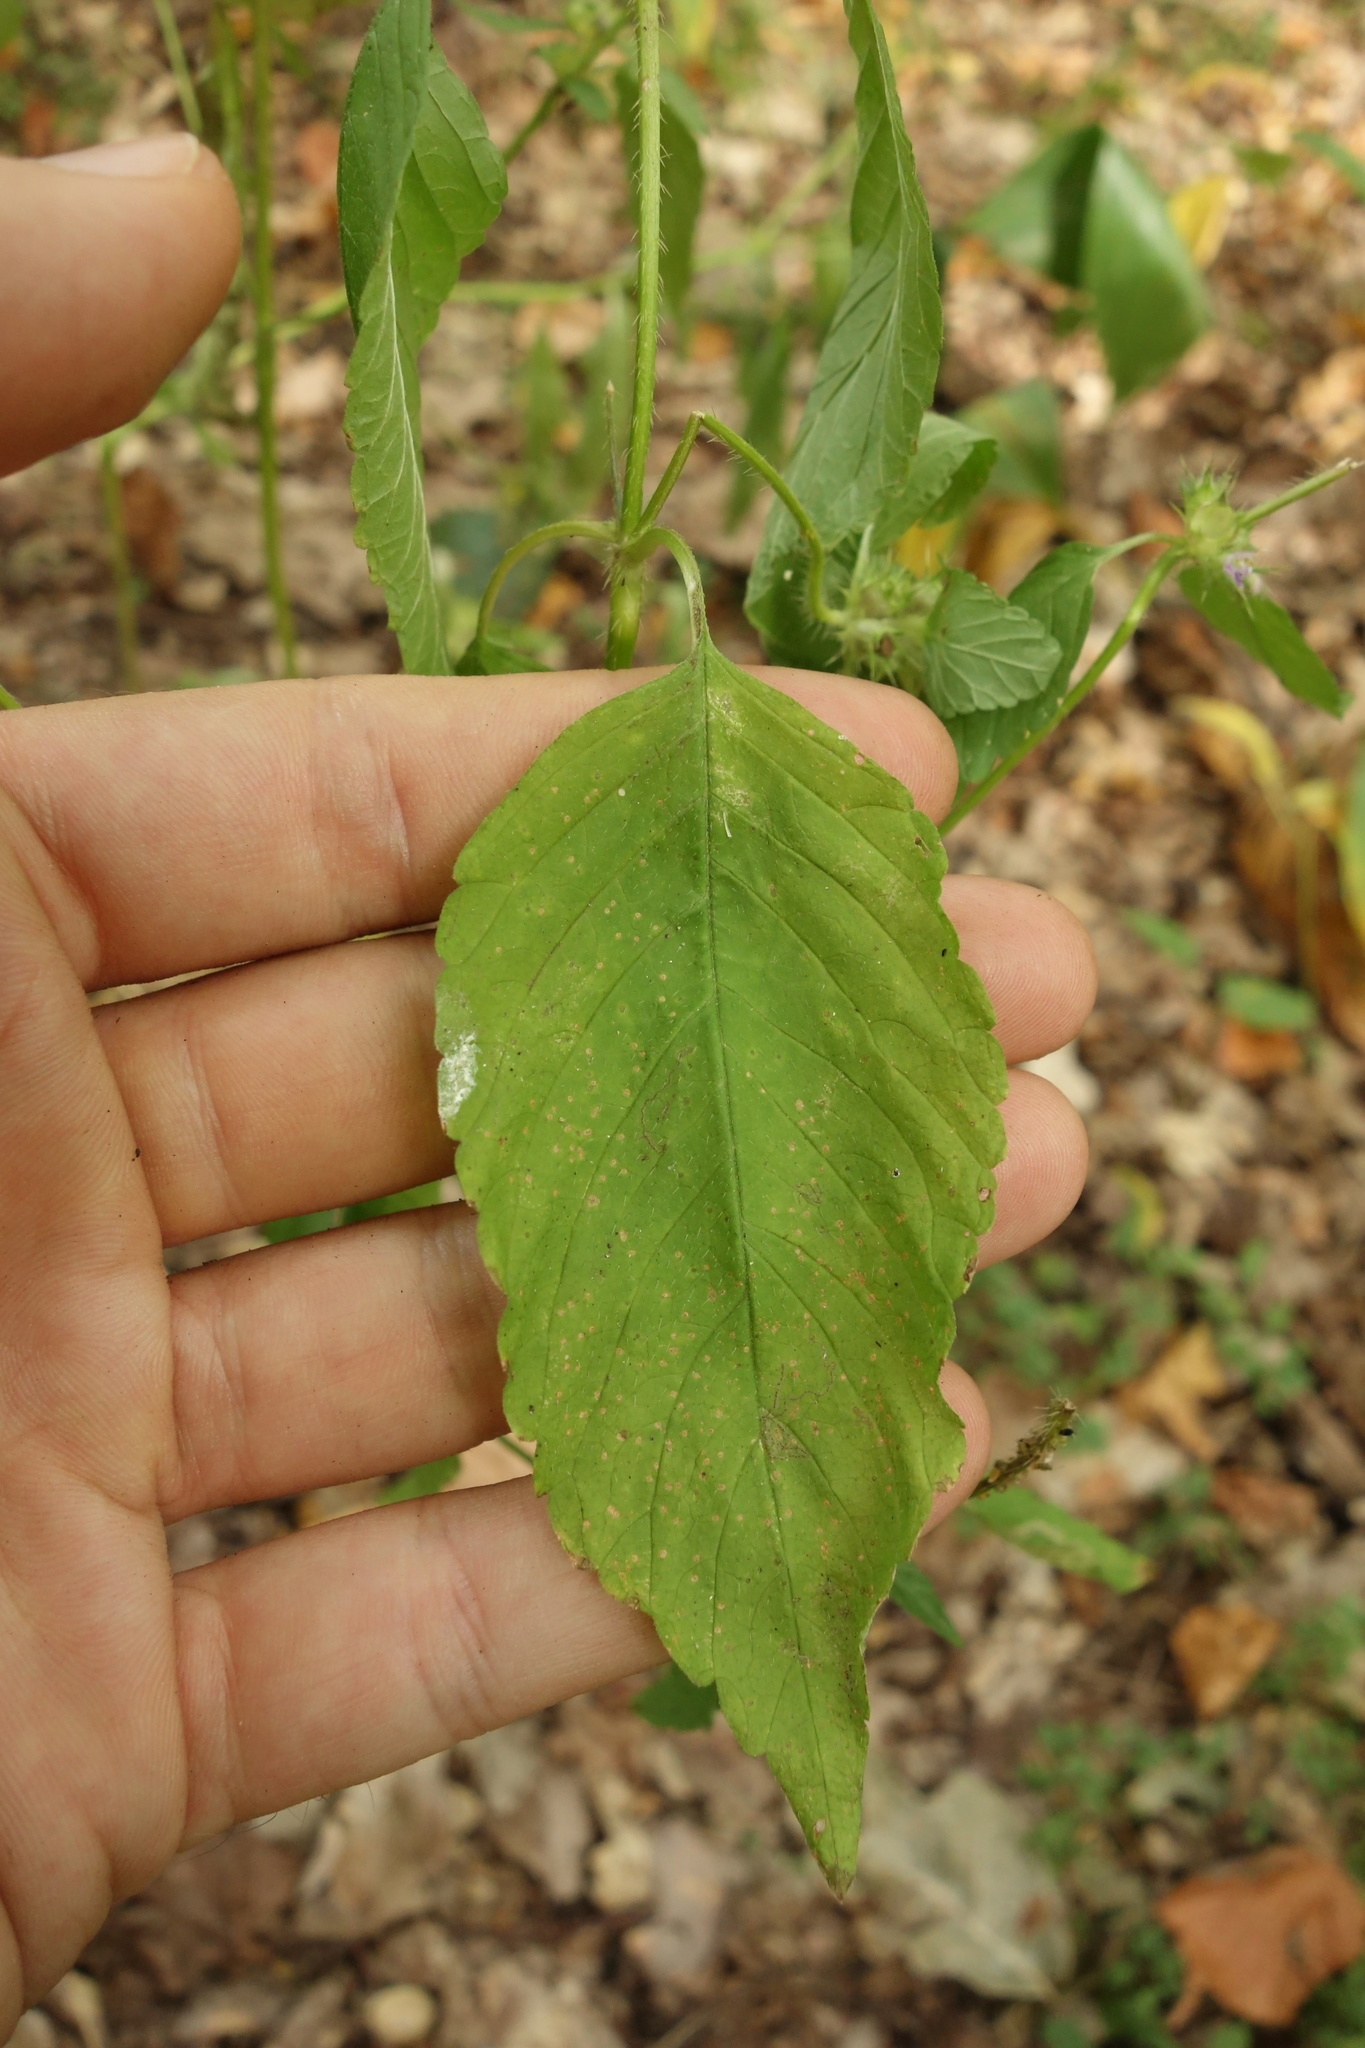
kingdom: Plantae
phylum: Tracheophyta
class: Magnoliopsida
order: Lamiales
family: Lamiaceae
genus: Galeopsis
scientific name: Galeopsis bifida
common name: Bifid hemp-nettle
